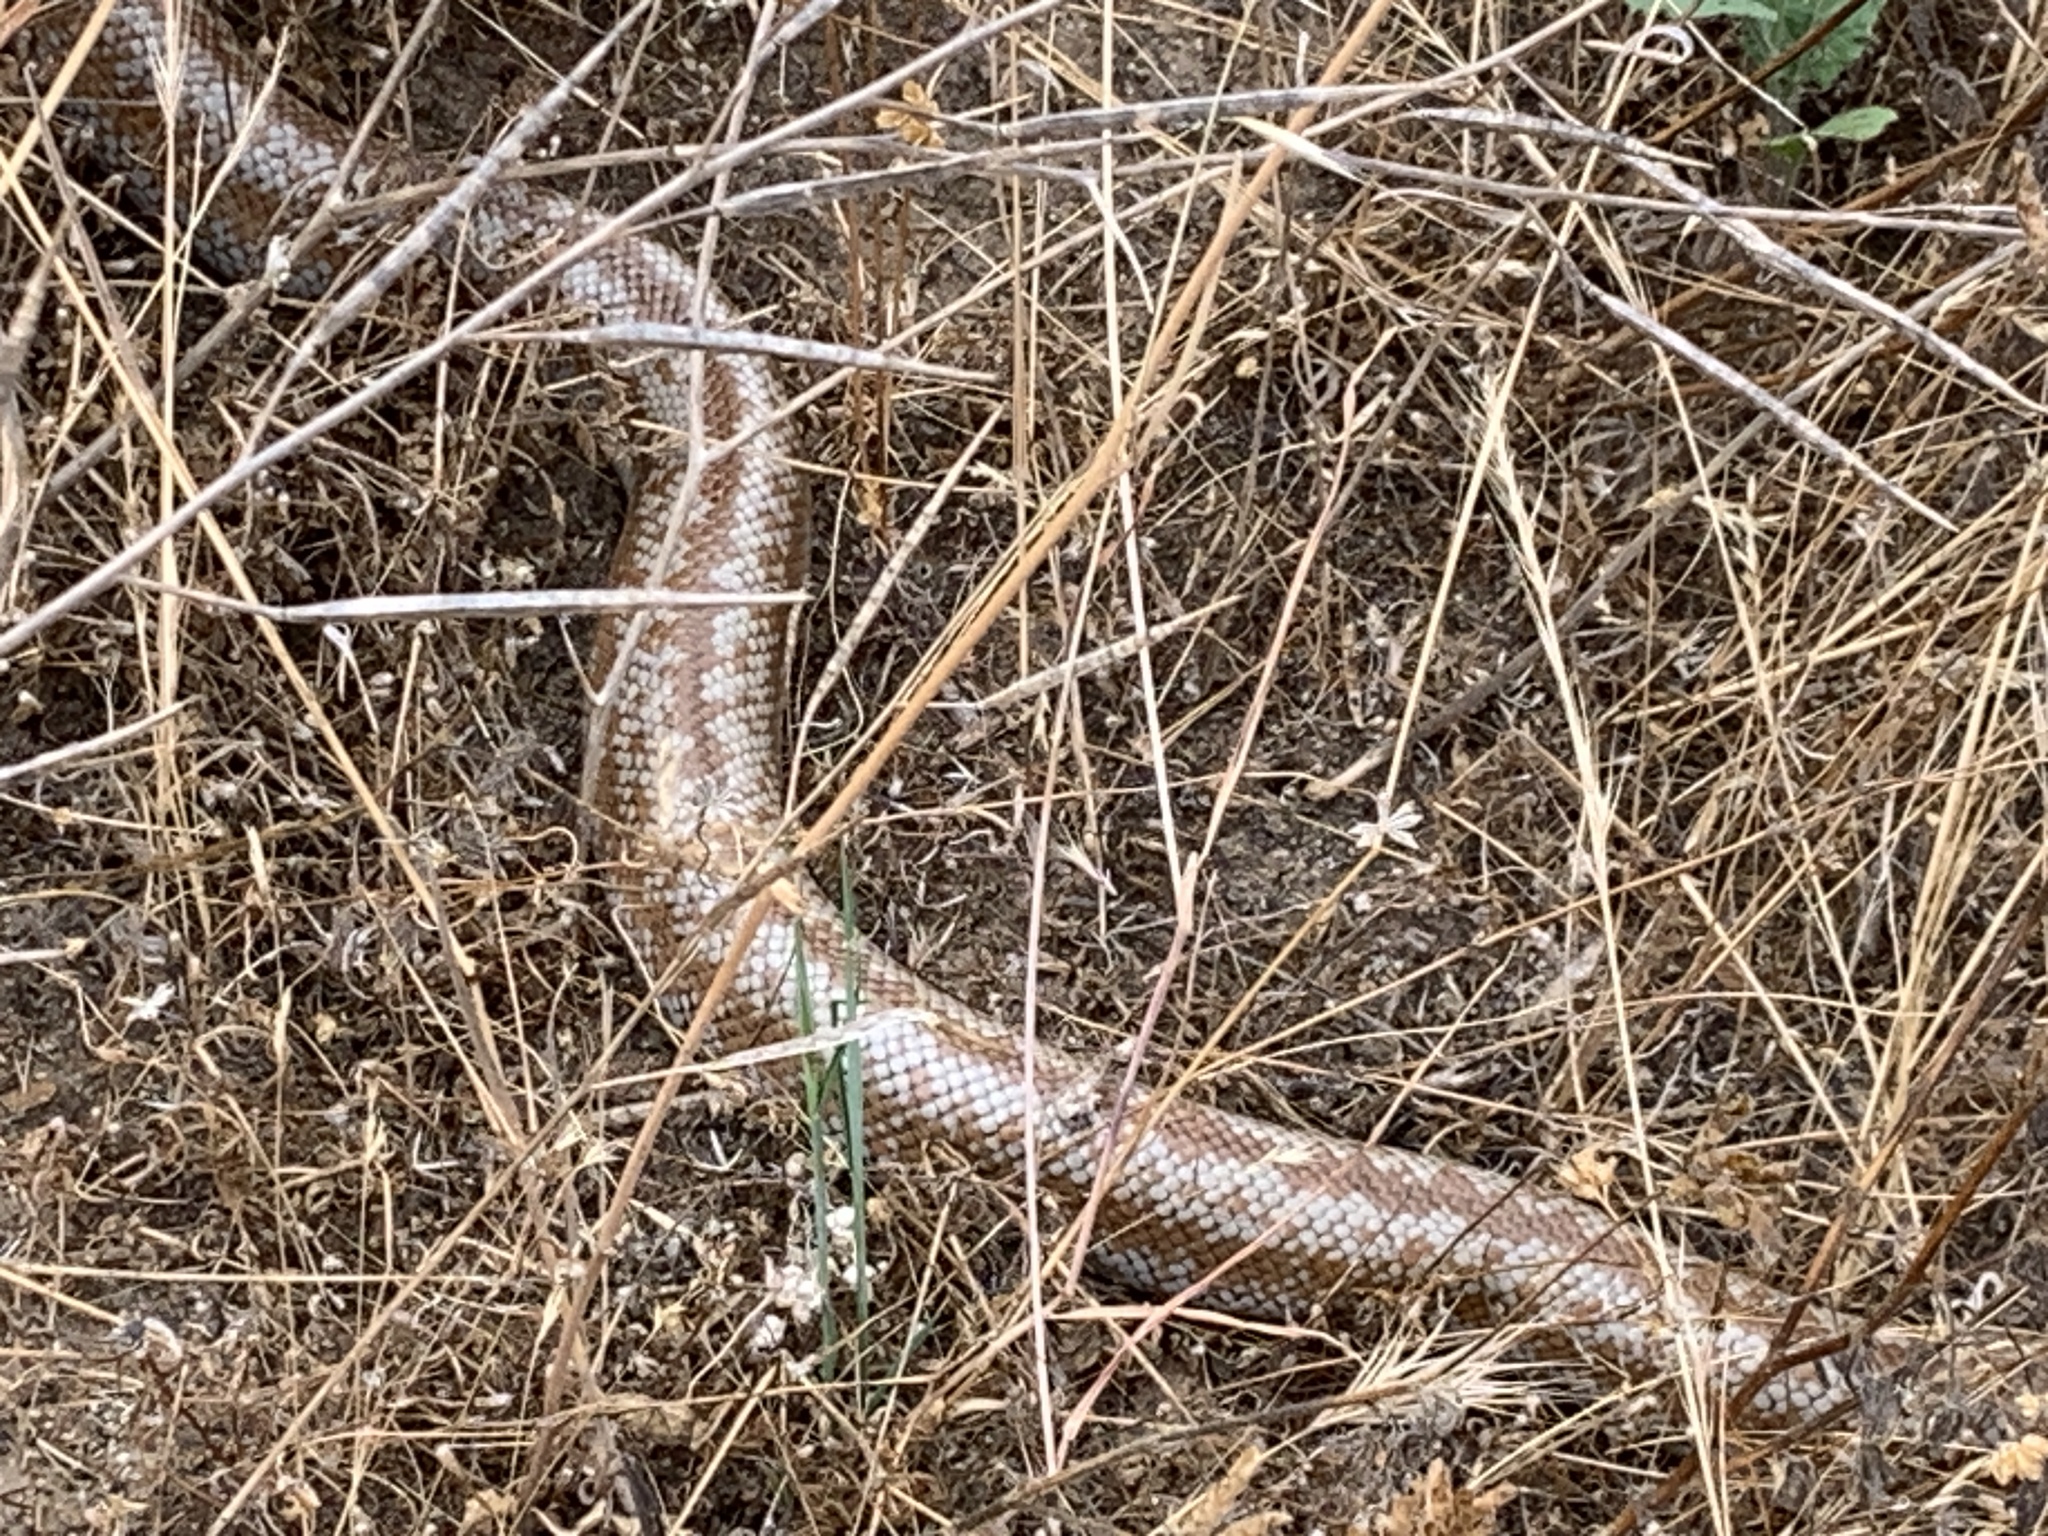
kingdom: Animalia
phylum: Chordata
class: Squamata
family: Boidae
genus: Lichanura
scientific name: Lichanura orcutti
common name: Northern three-lined boa
